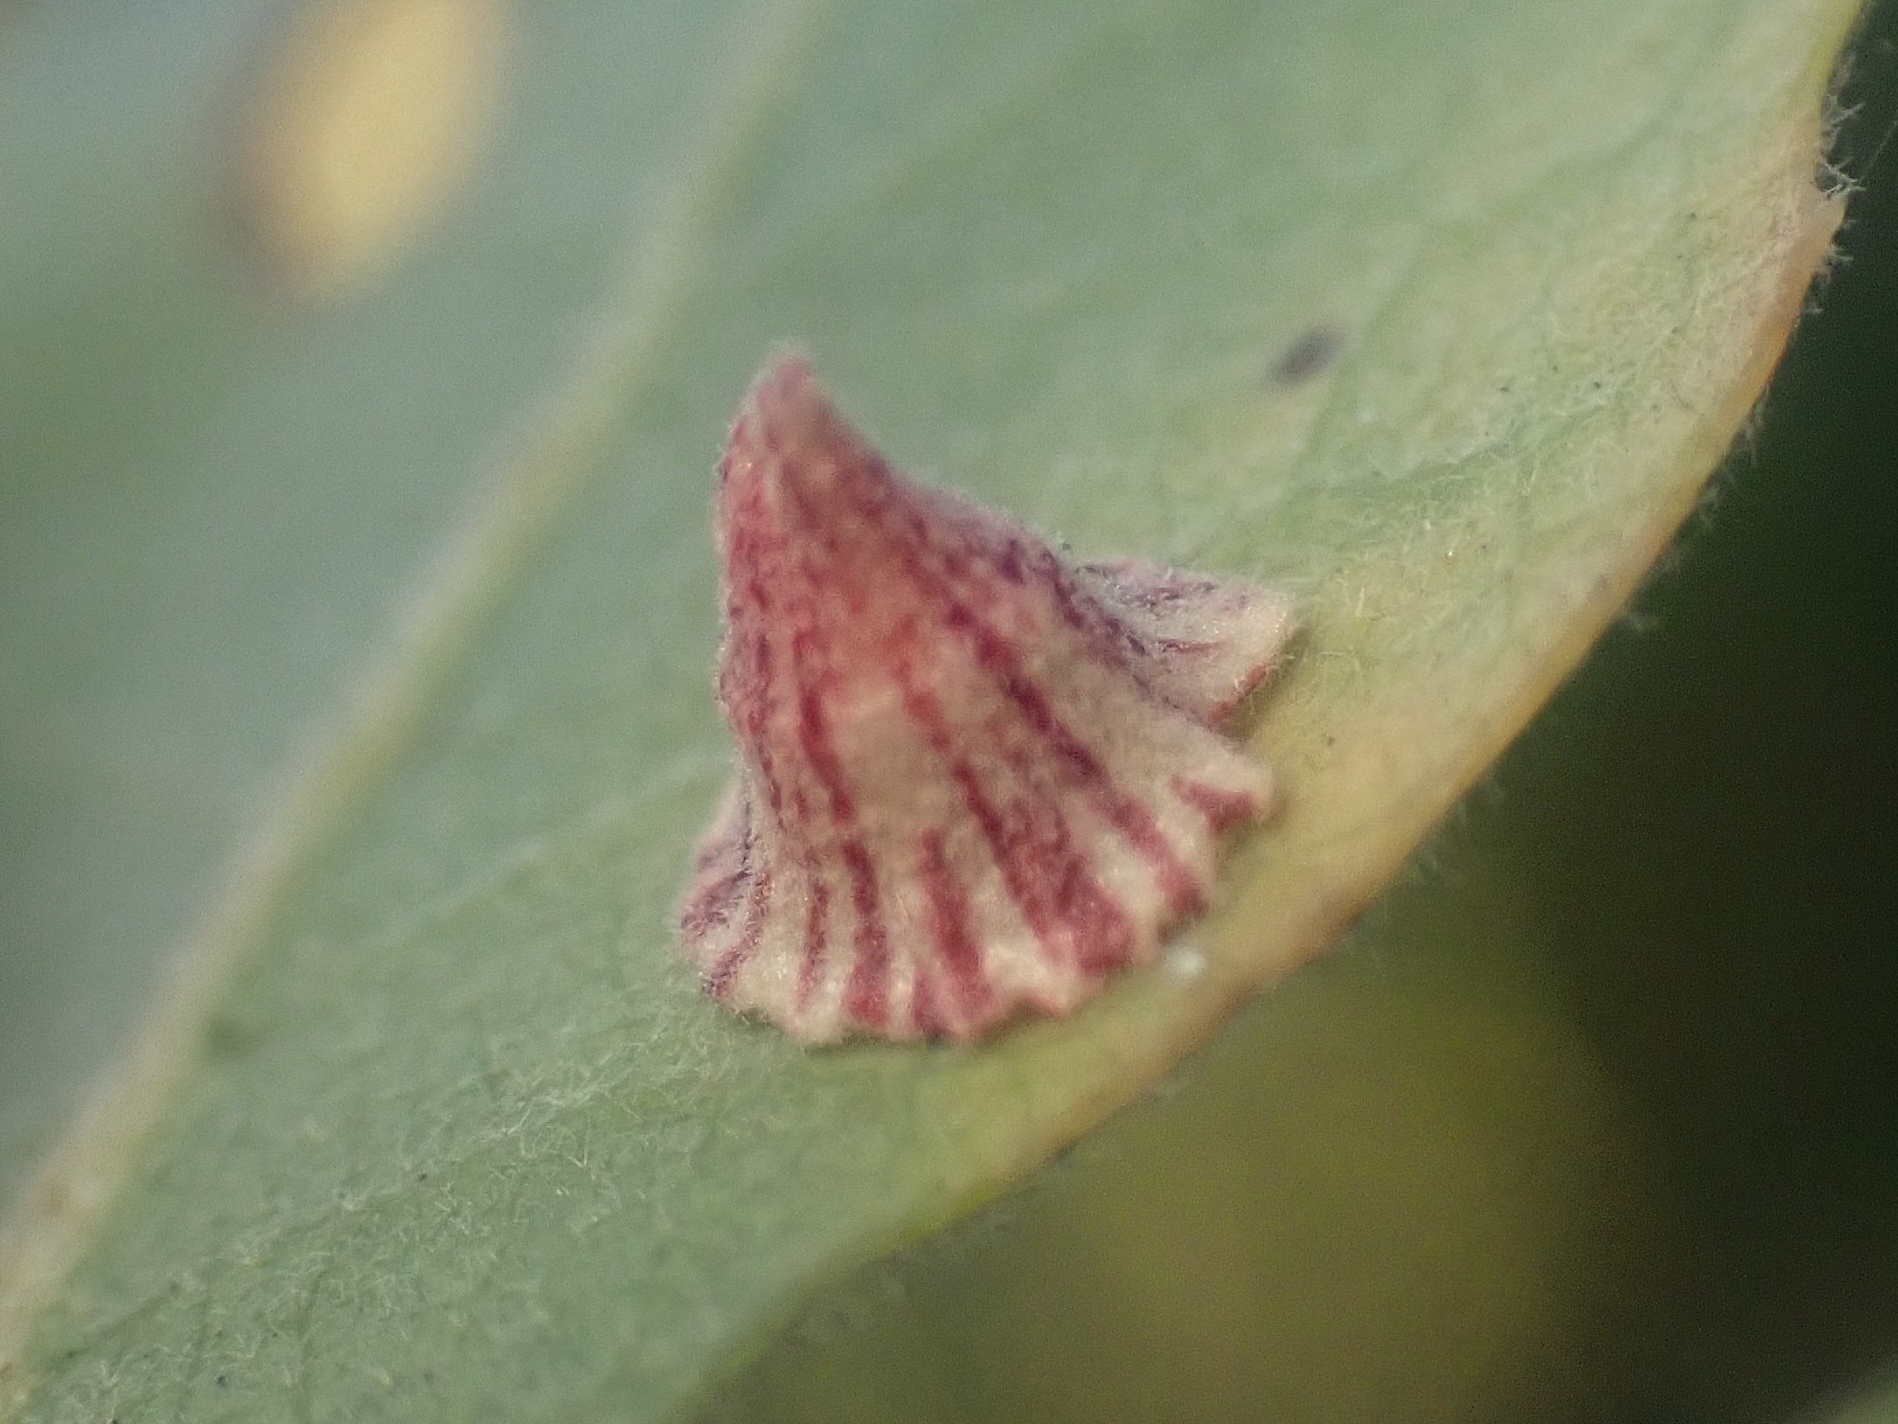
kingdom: Animalia
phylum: Arthropoda
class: Insecta
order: Hymenoptera
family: Cynipidae
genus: Andricus
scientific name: Andricus
